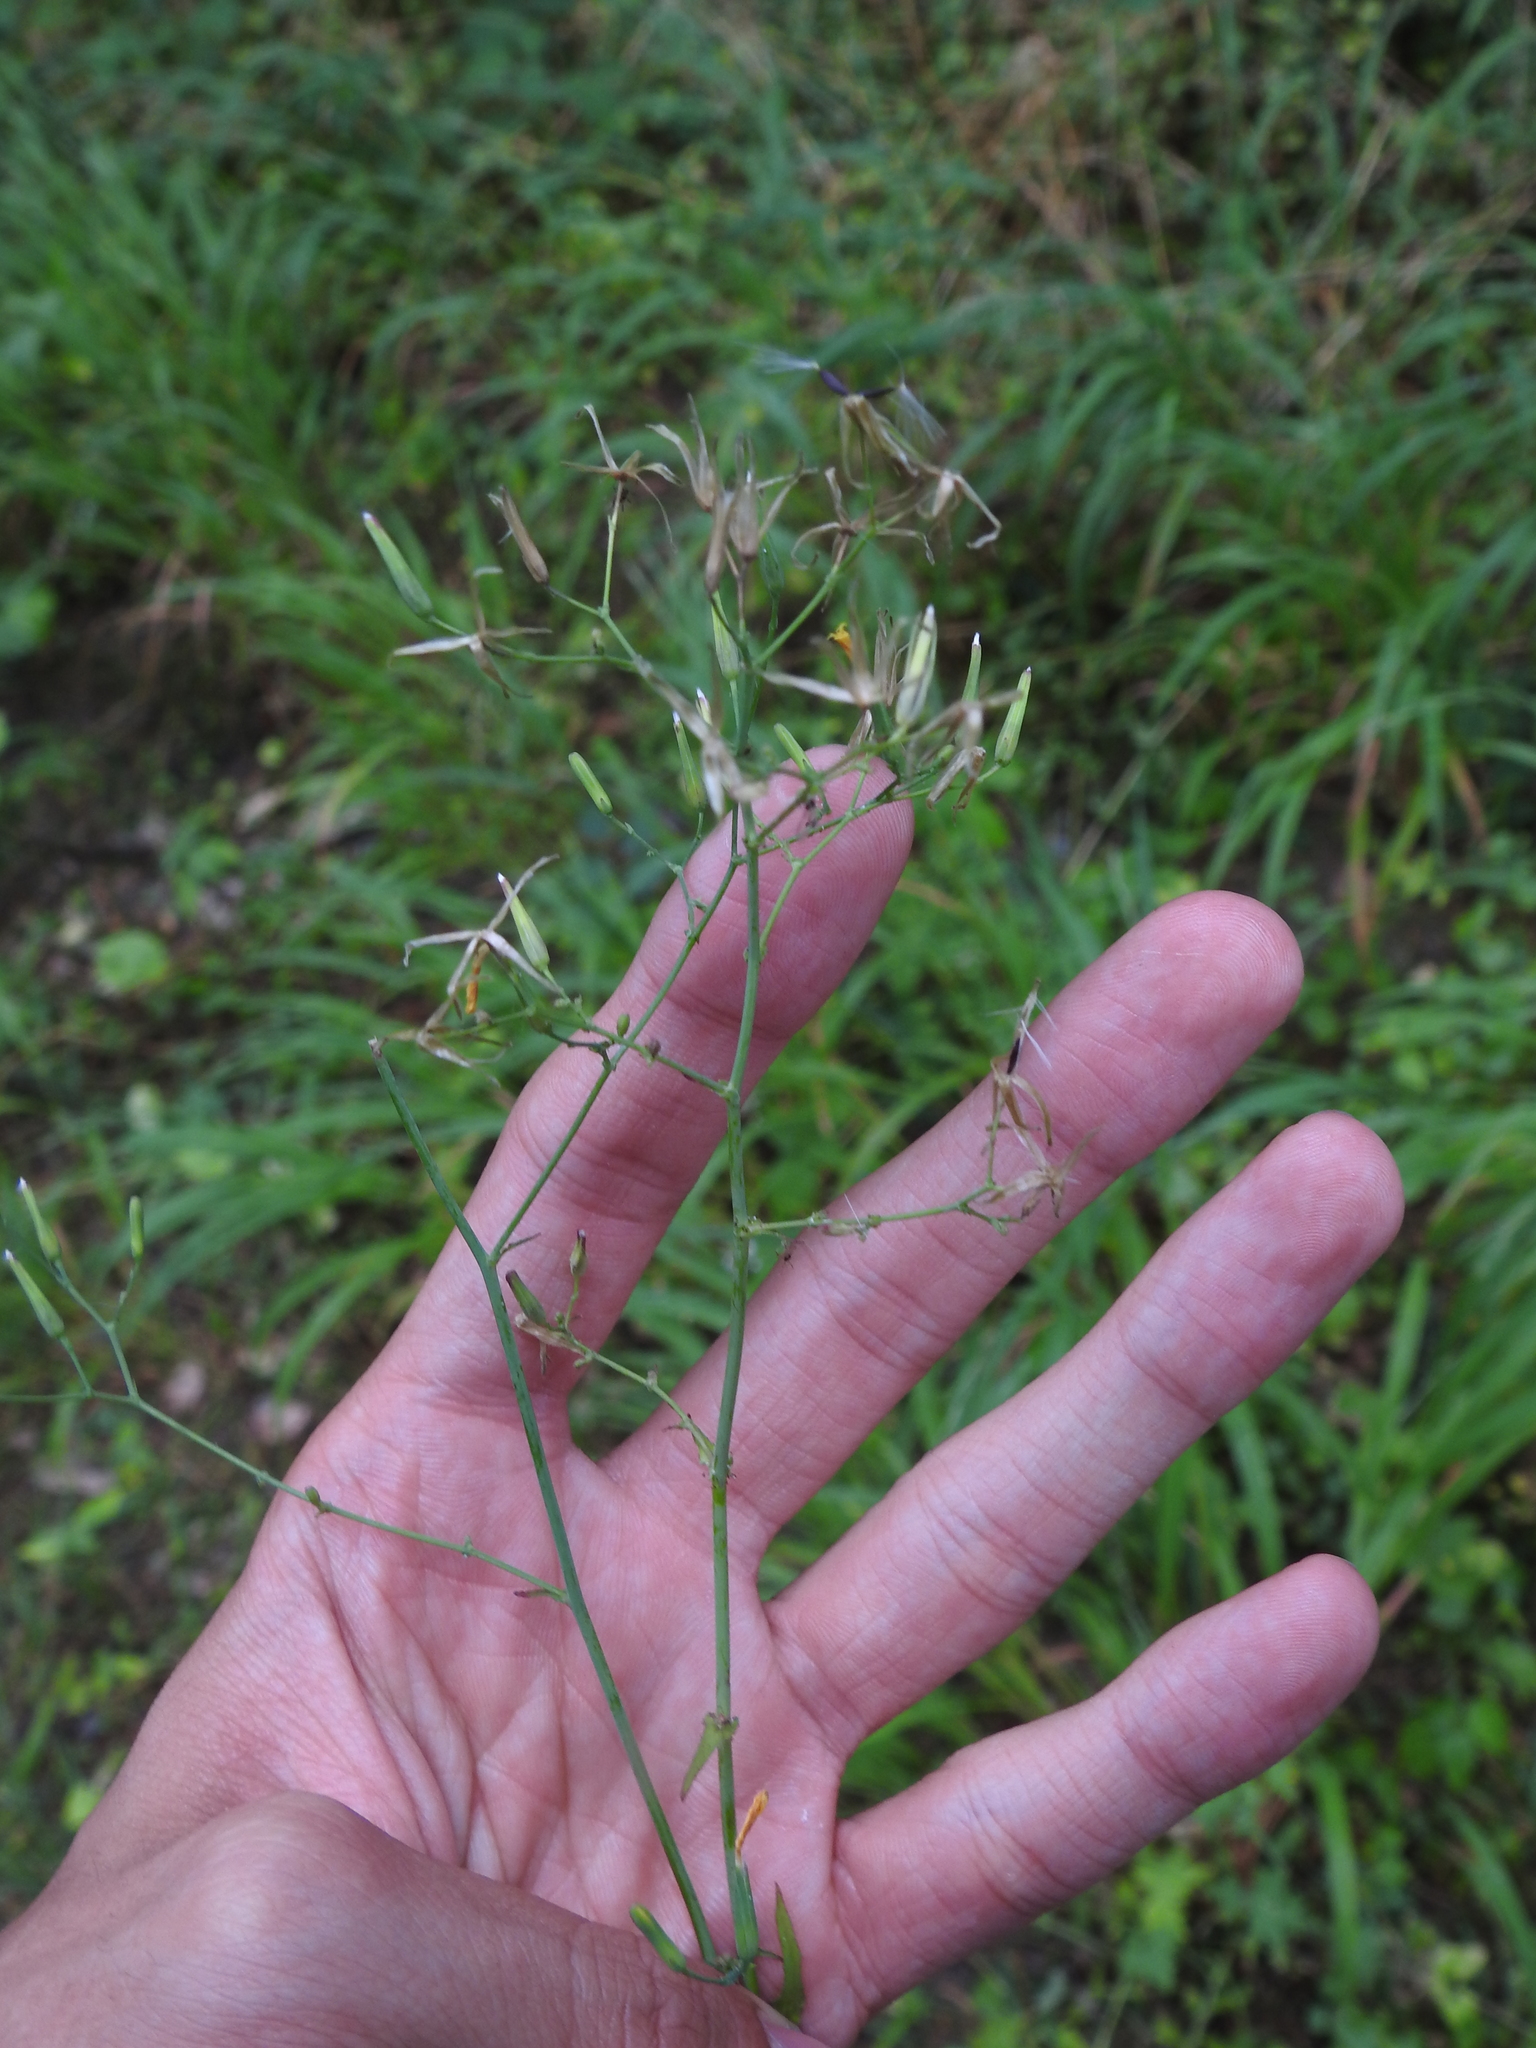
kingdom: Plantae
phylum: Tracheophyta
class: Magnoliopsida
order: Asterales
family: Asteraceae
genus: Mycelis
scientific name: Mycelis muralis
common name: Wall lettuce
